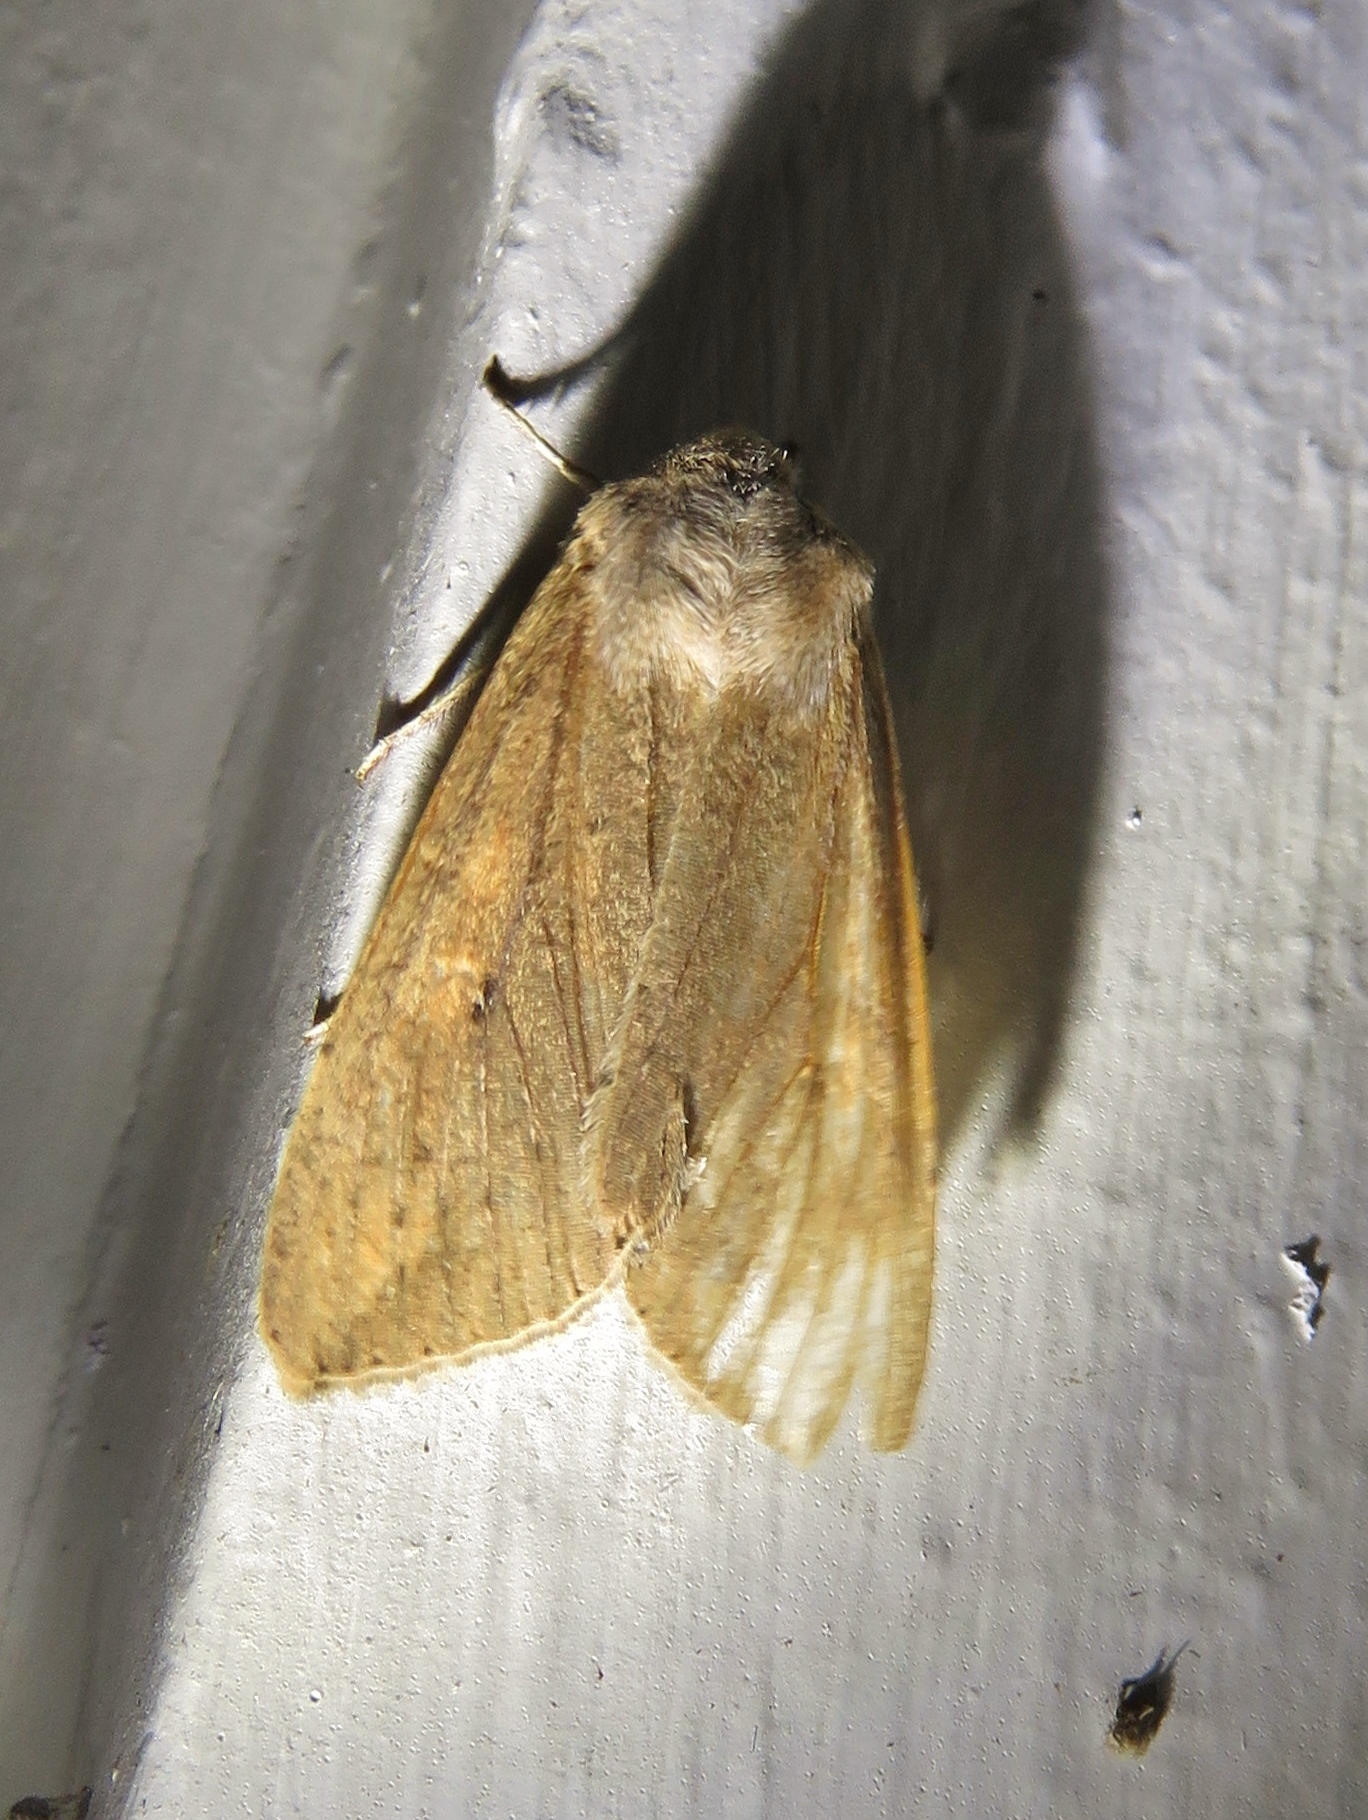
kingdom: Animalia
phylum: Arthropoda
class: Insecta
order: Lepidoptera
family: Noctuidae
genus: Mythimna
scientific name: Mythimna unipuncta
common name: White-speck
